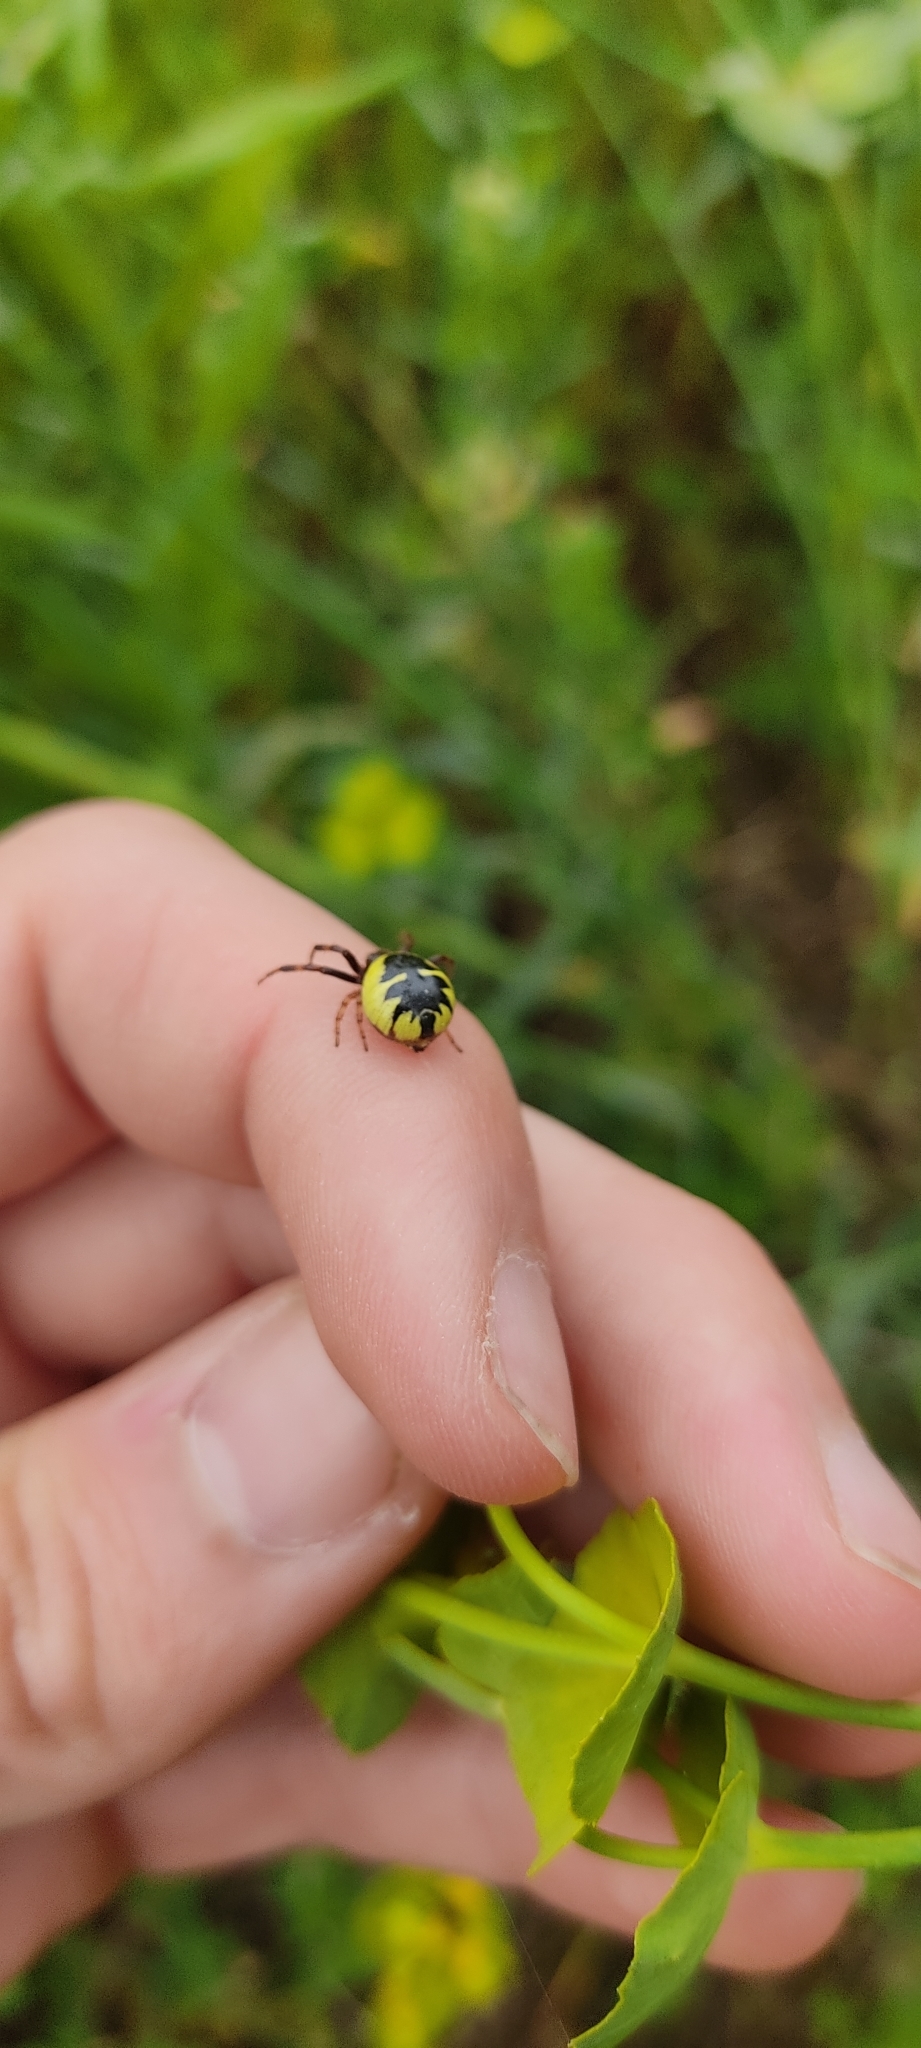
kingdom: Animalia
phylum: Arthropoda
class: Arachnida
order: Araneae
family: Thomisidae
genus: Synema
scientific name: Synema globosum
